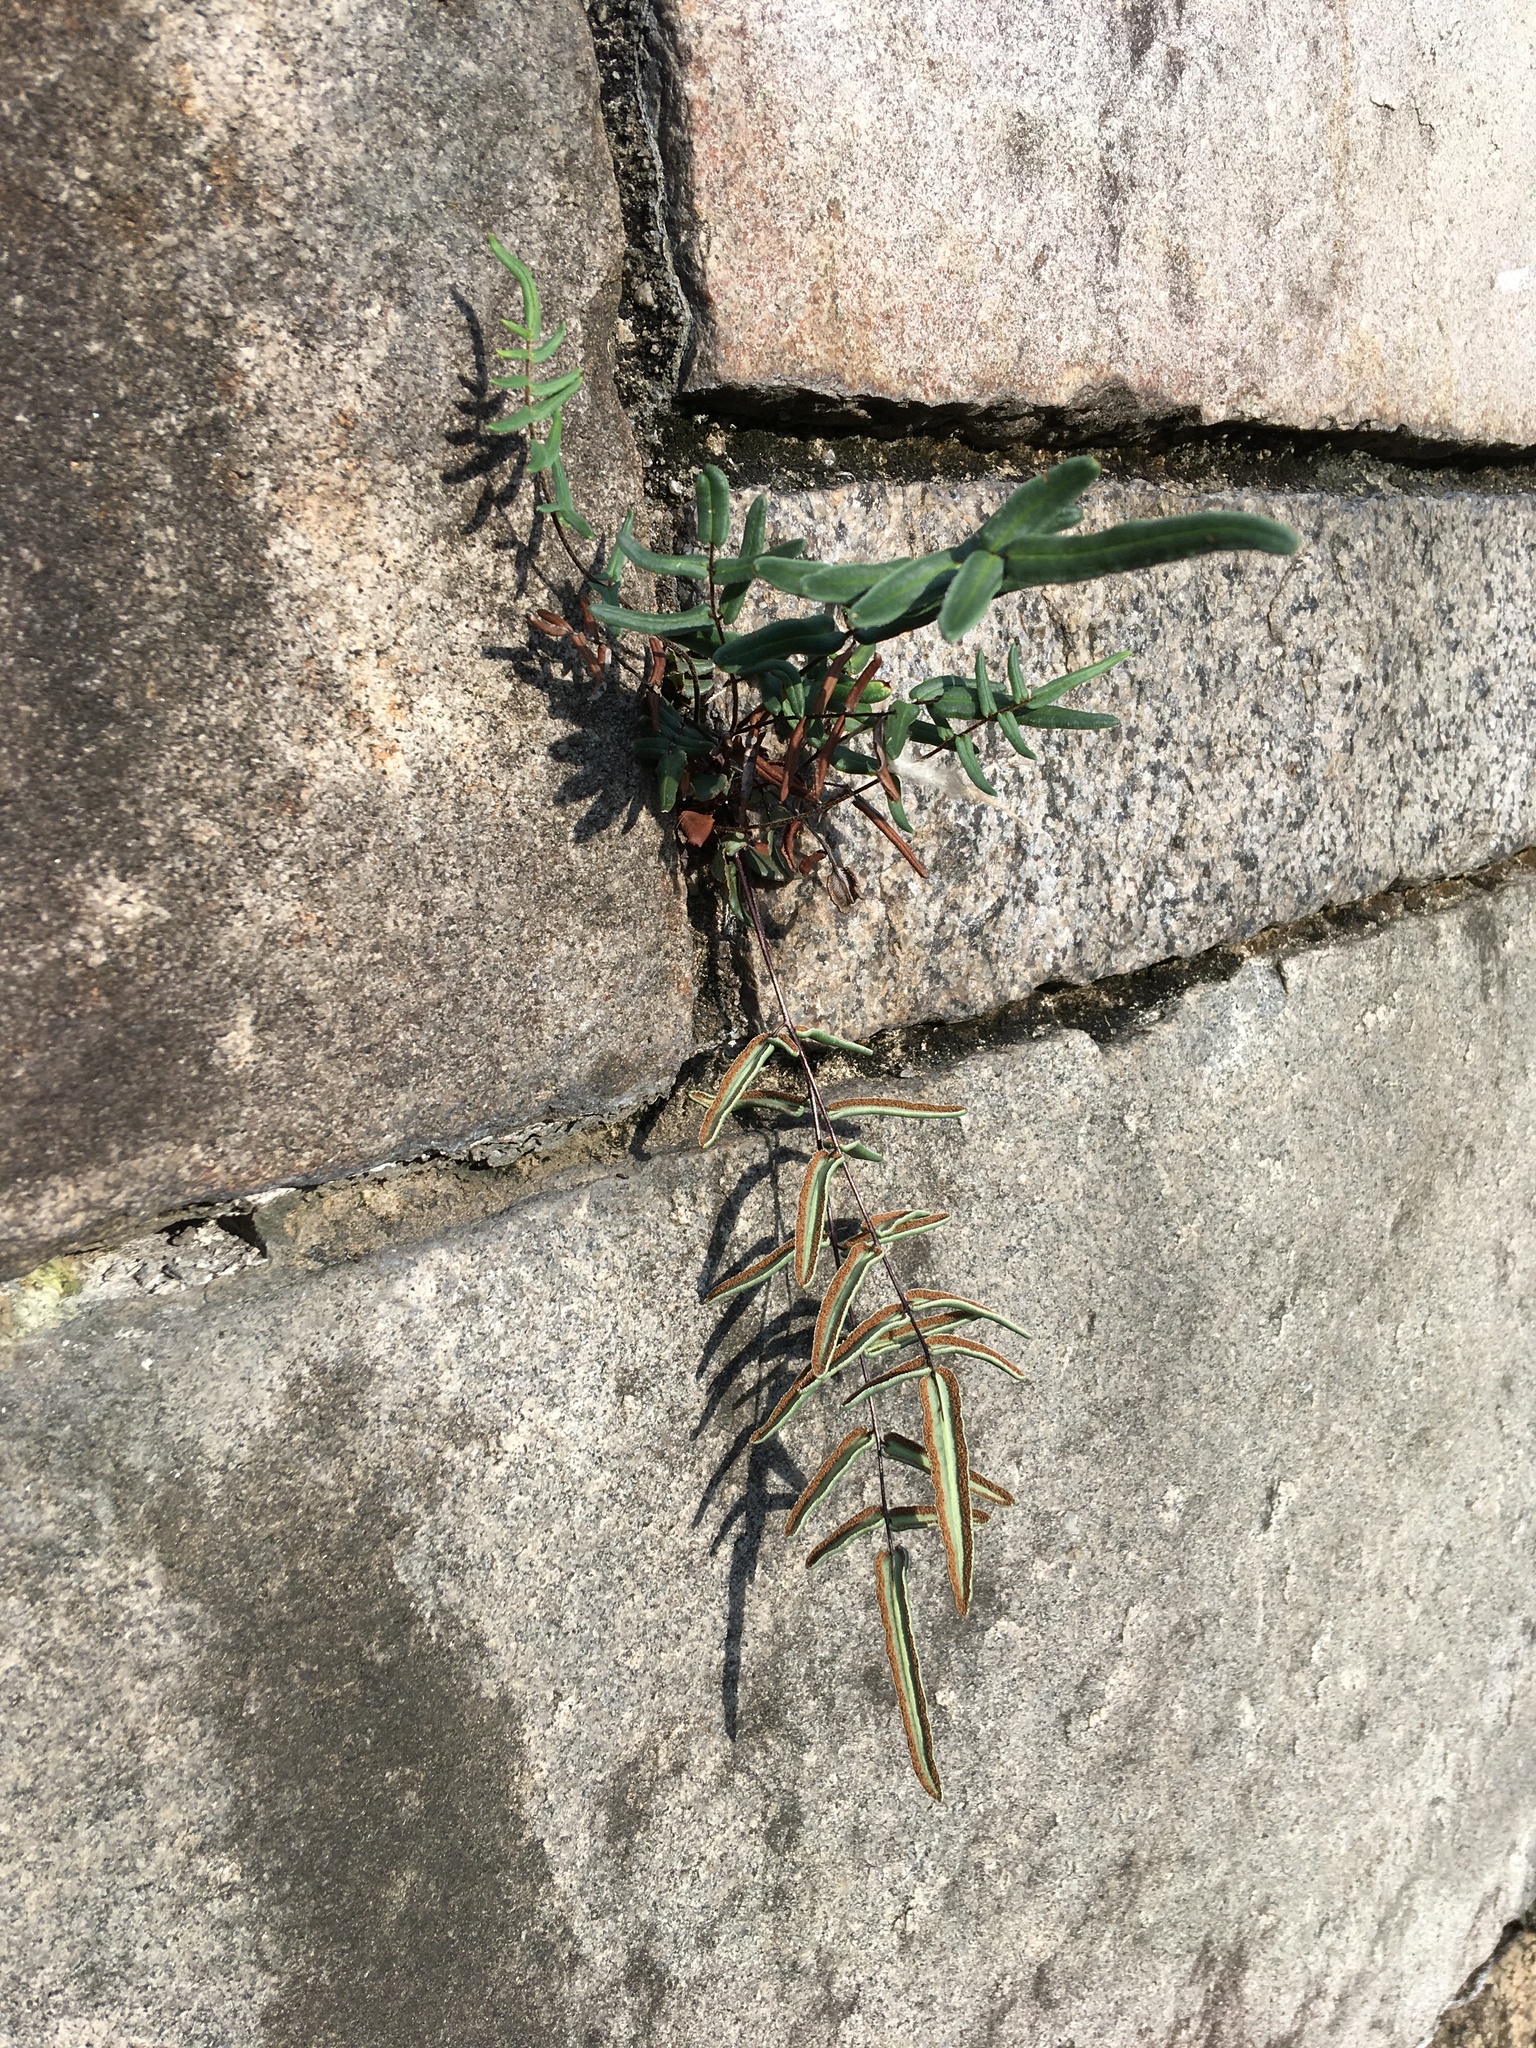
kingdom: Plantae
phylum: Tracheophyta
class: Polypodiopsida
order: Polypodiales
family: Pteridaceae
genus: Pellaea
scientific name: Pellaea atropurpurea
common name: Hairy cliffbrake
